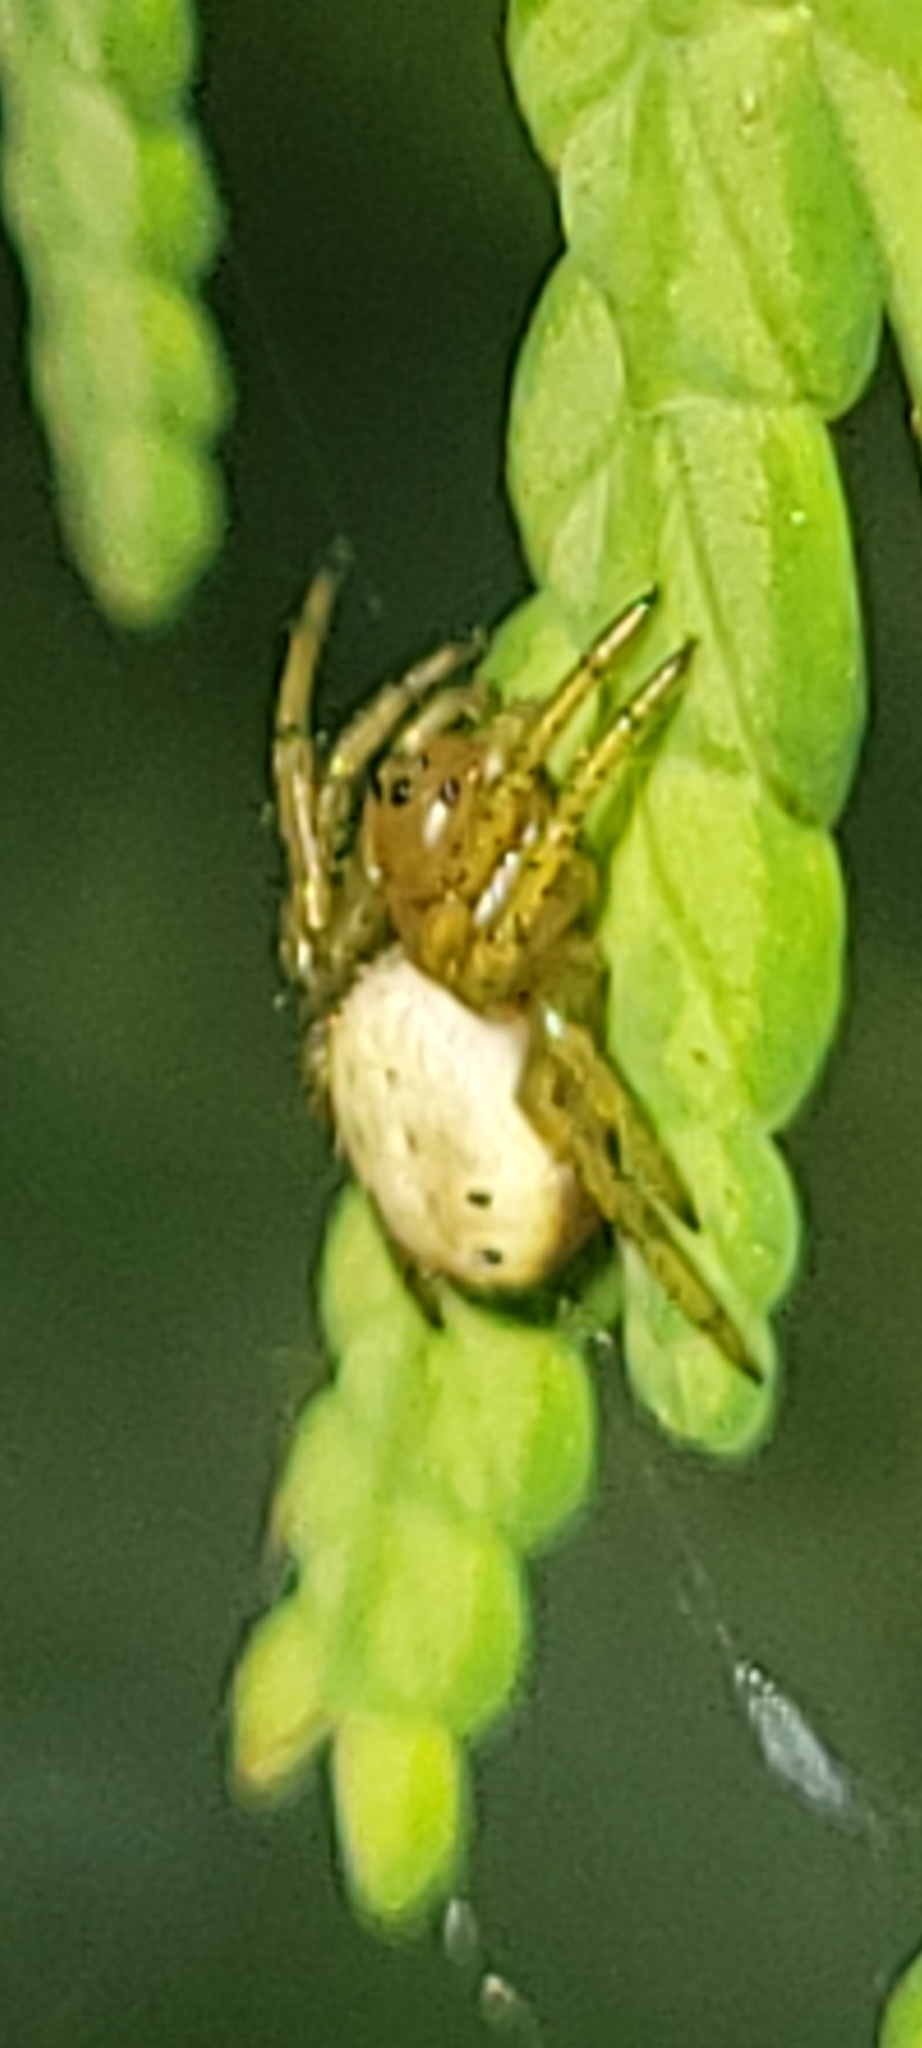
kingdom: Animalia
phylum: Arthropoda
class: Arachnida
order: Araneae
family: Araneidae
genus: Araniella
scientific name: Araniella displicata
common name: Sixspotted orb weaver
